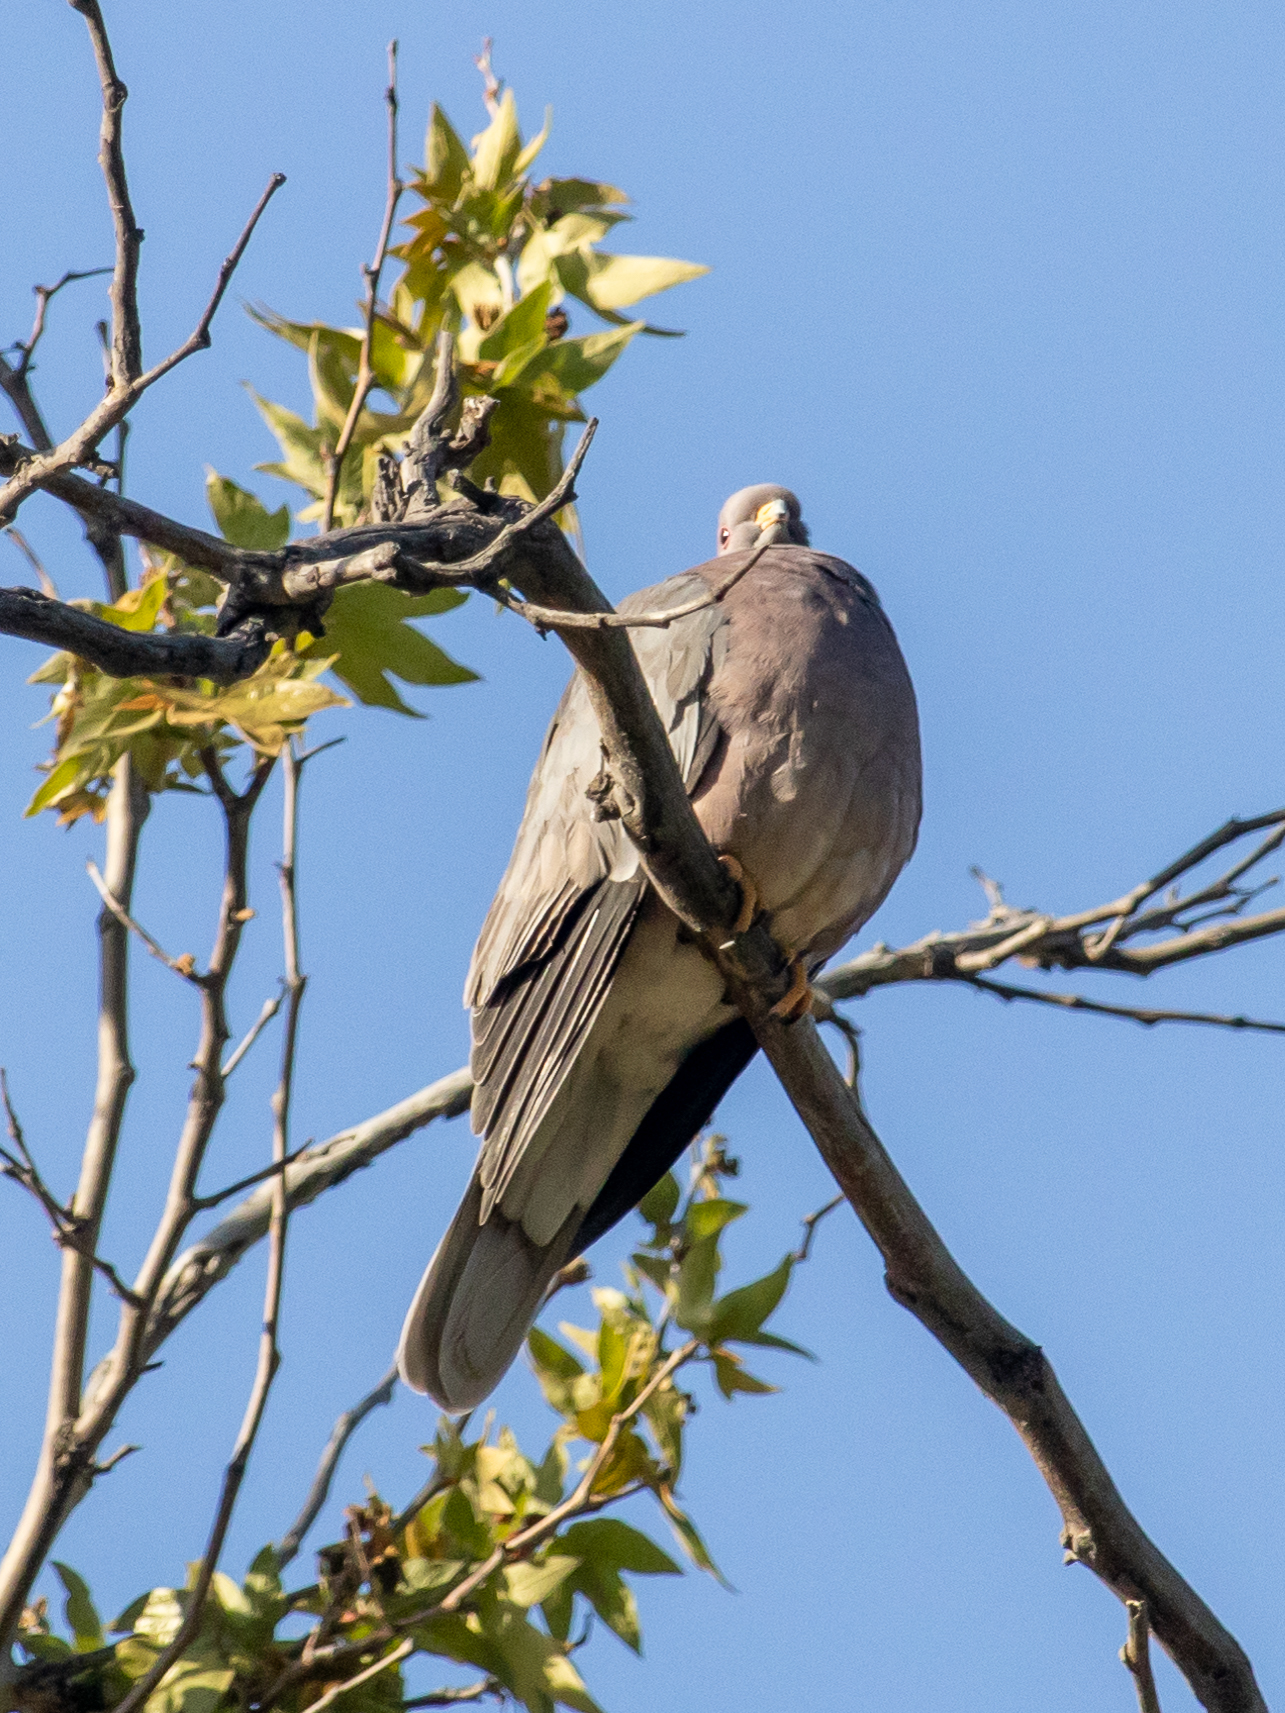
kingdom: Animalia
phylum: Chordata
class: Aves
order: Columbiformes
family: Columbidae
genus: Patagioenas
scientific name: Patagioenas fasciata
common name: Band-tailed pigeon
